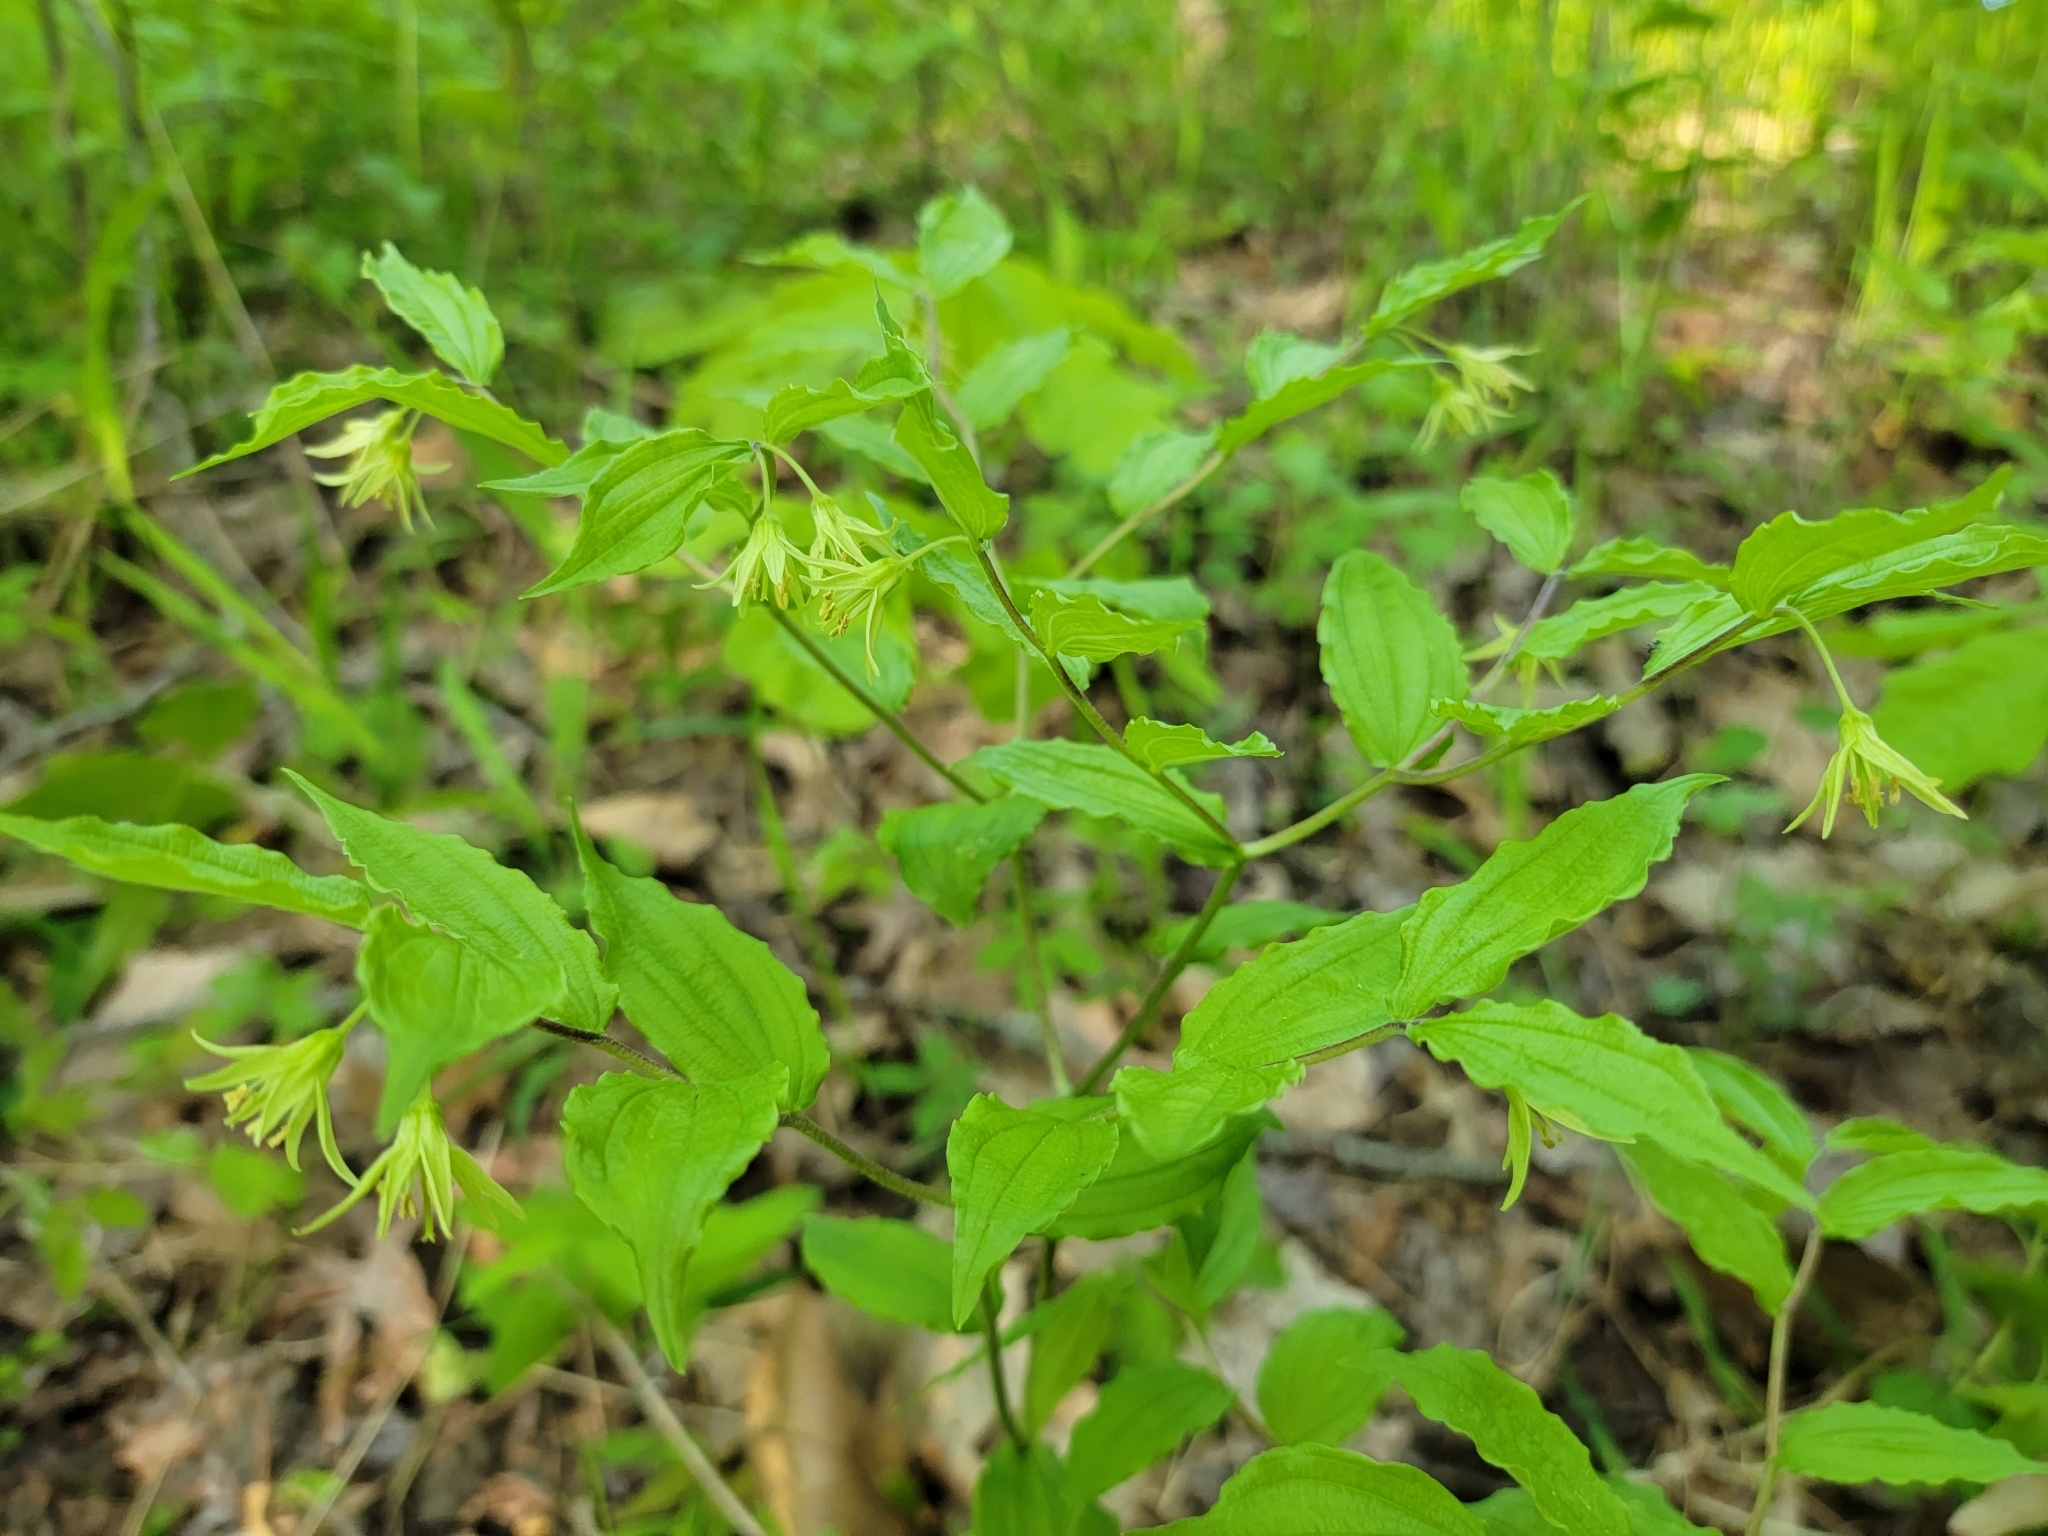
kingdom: Plantae
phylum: Tracheophyta
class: Liliopsida
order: Liliales
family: Liliaceae
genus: Prosartes
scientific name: Prosartes lanuginosa
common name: Hairy mandarin
